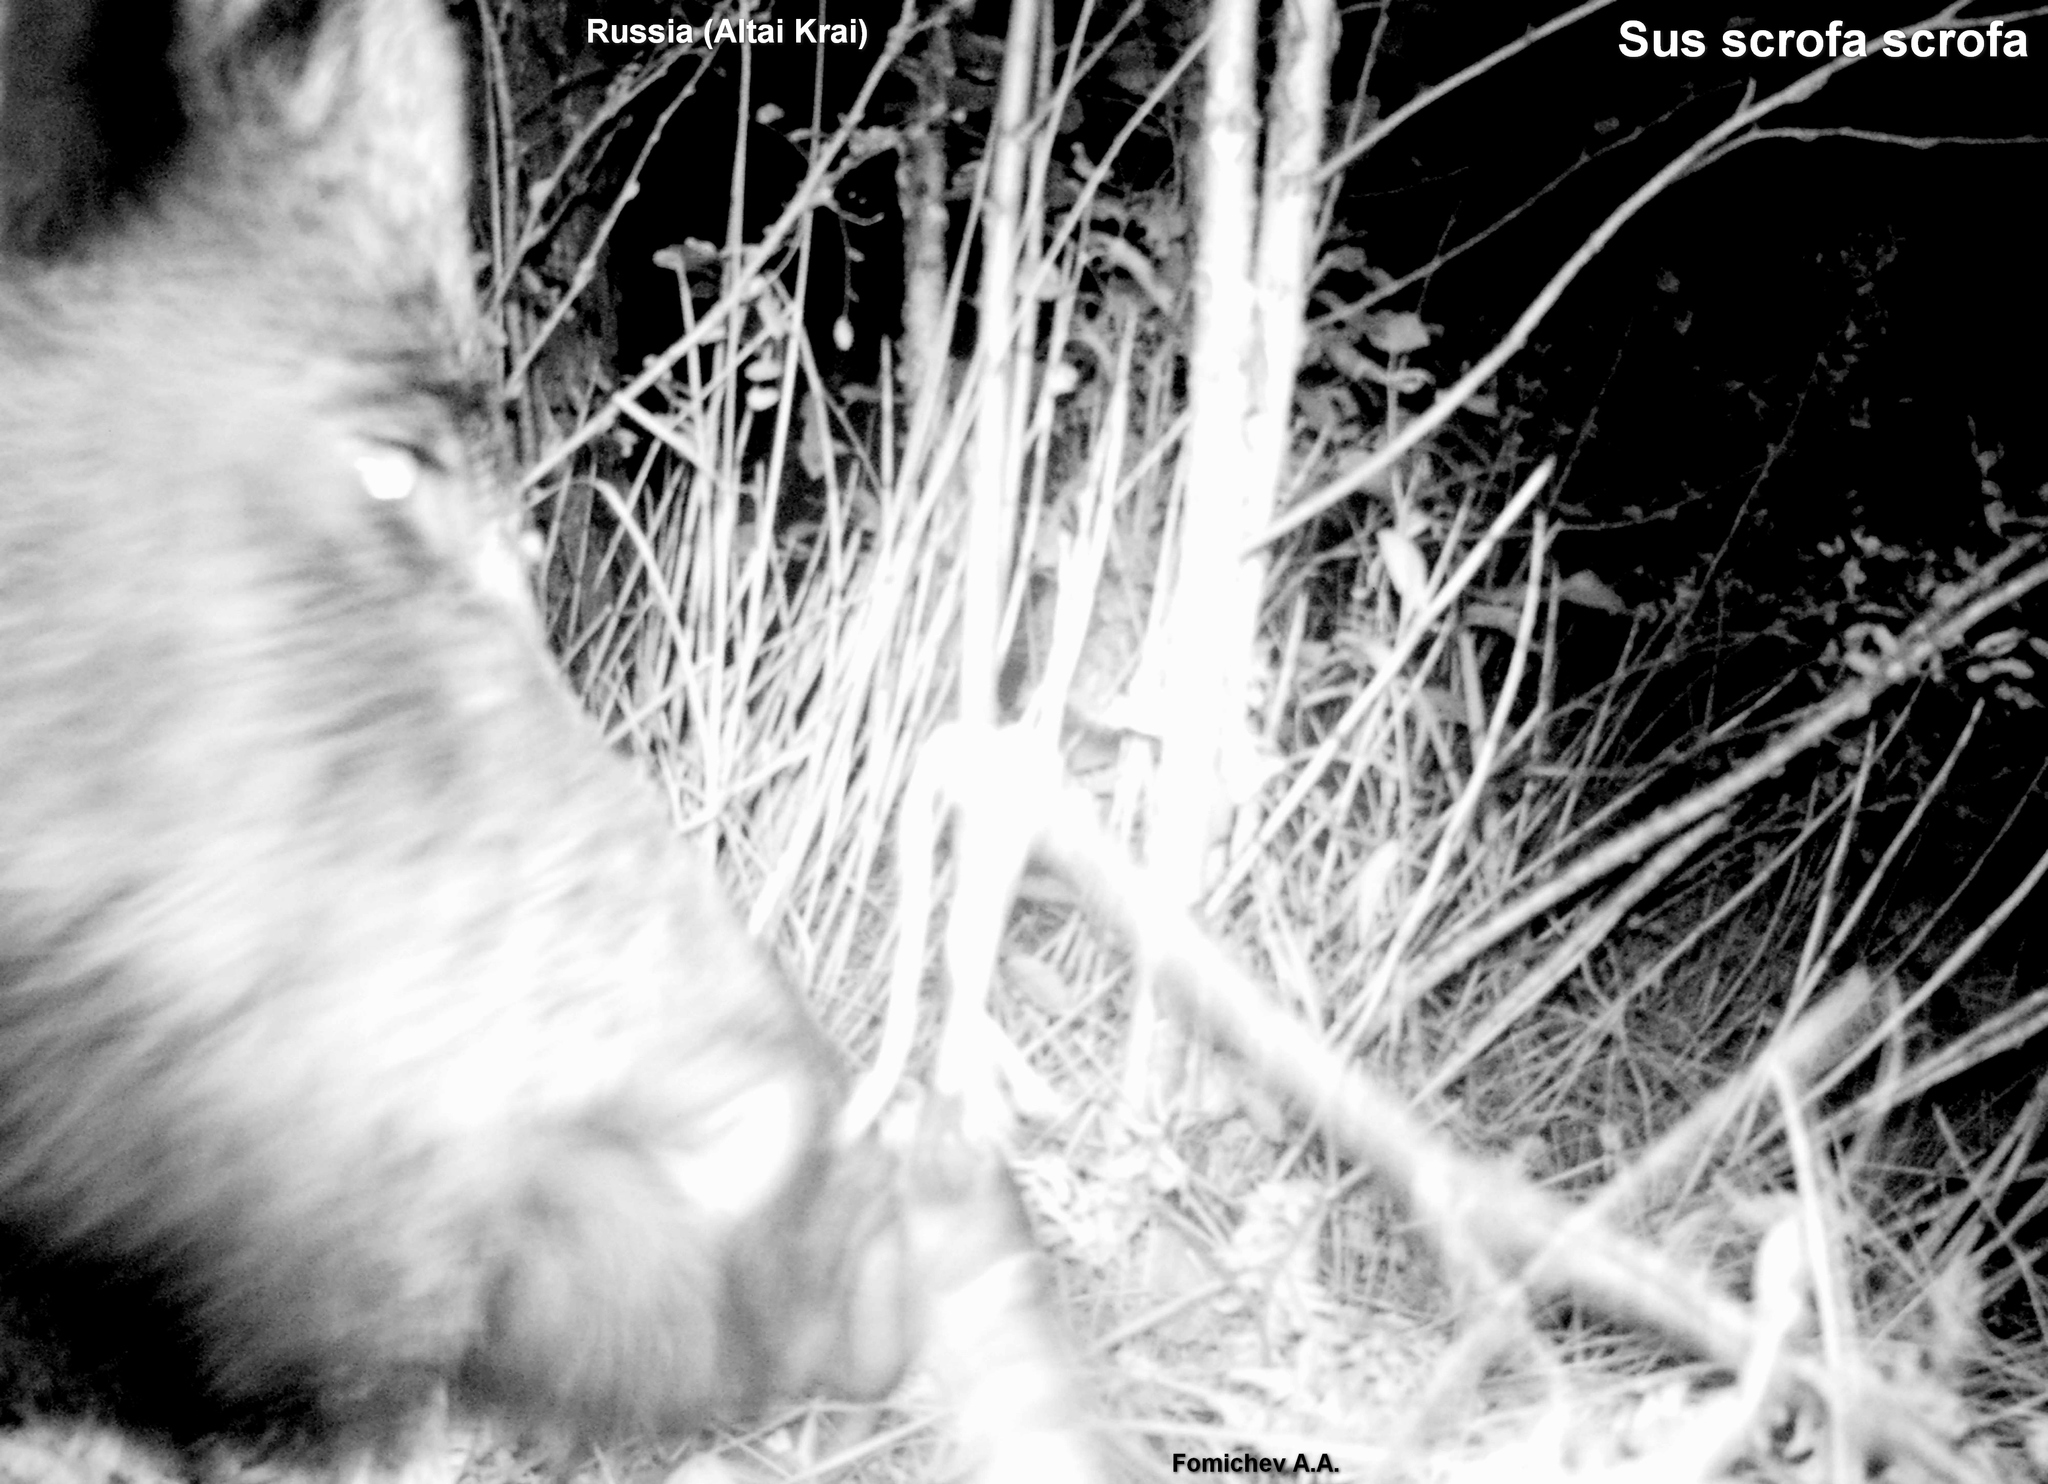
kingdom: Animalia
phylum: Chordata
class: Mammalia
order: Artiodactyla
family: Suidae
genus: Sus
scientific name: Sus scrofa
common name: Wild boar
